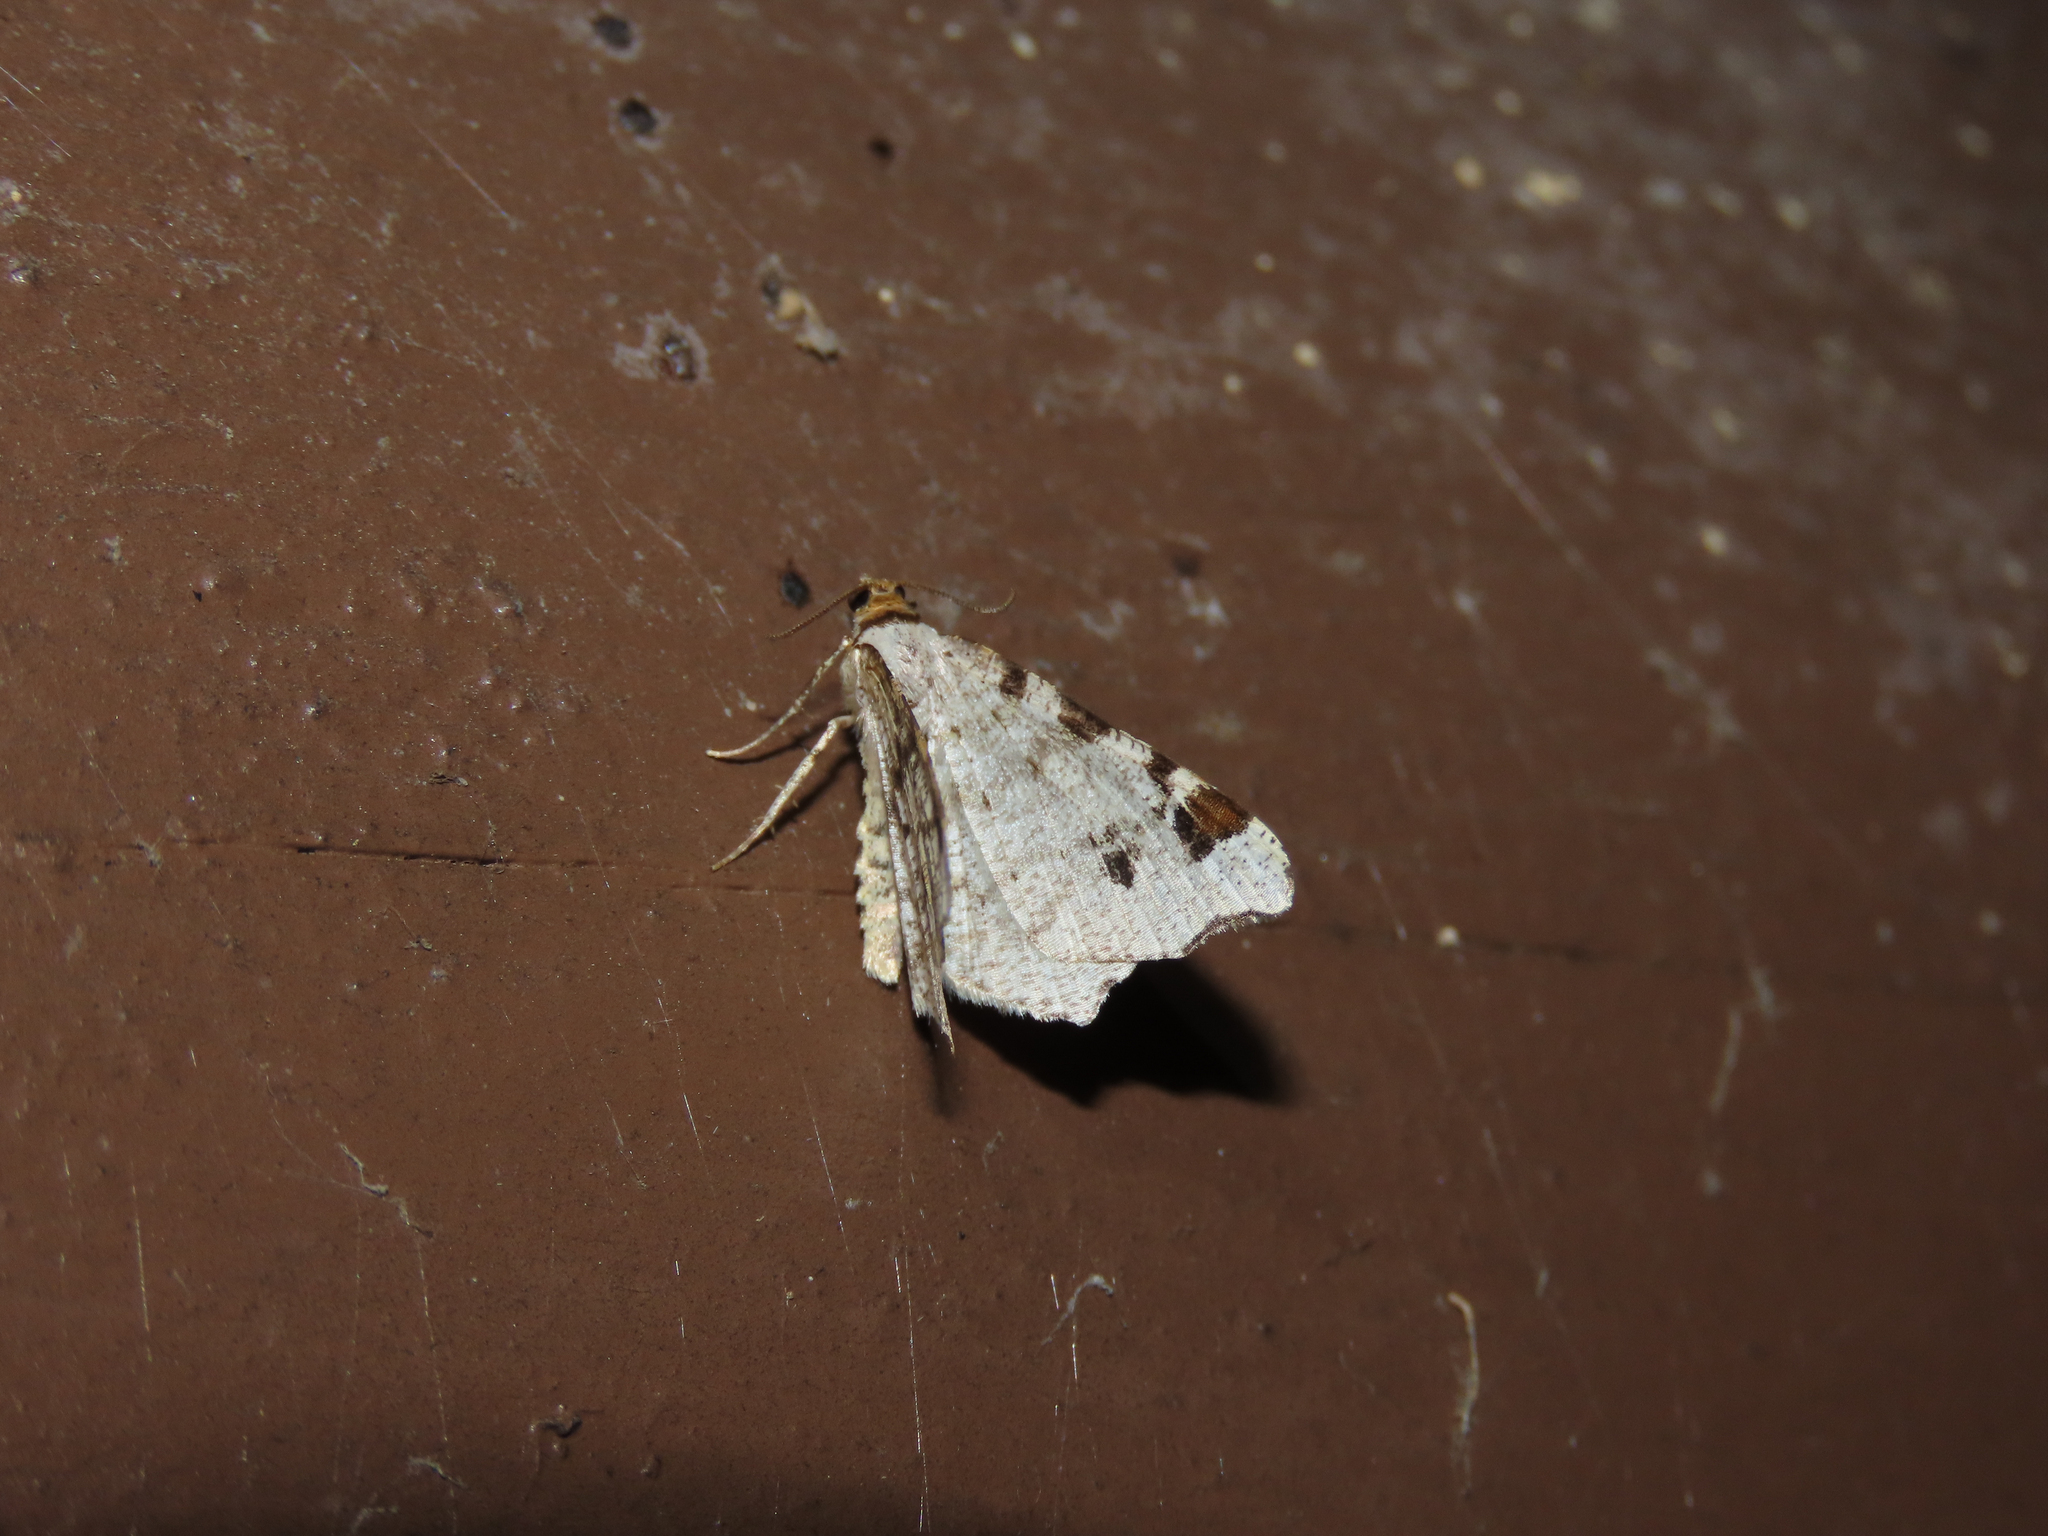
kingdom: Animalia
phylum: Arthropoda
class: Insecta
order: Lepidoptera
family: Geometridae
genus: Macaria
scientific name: Macaria ulsterata
